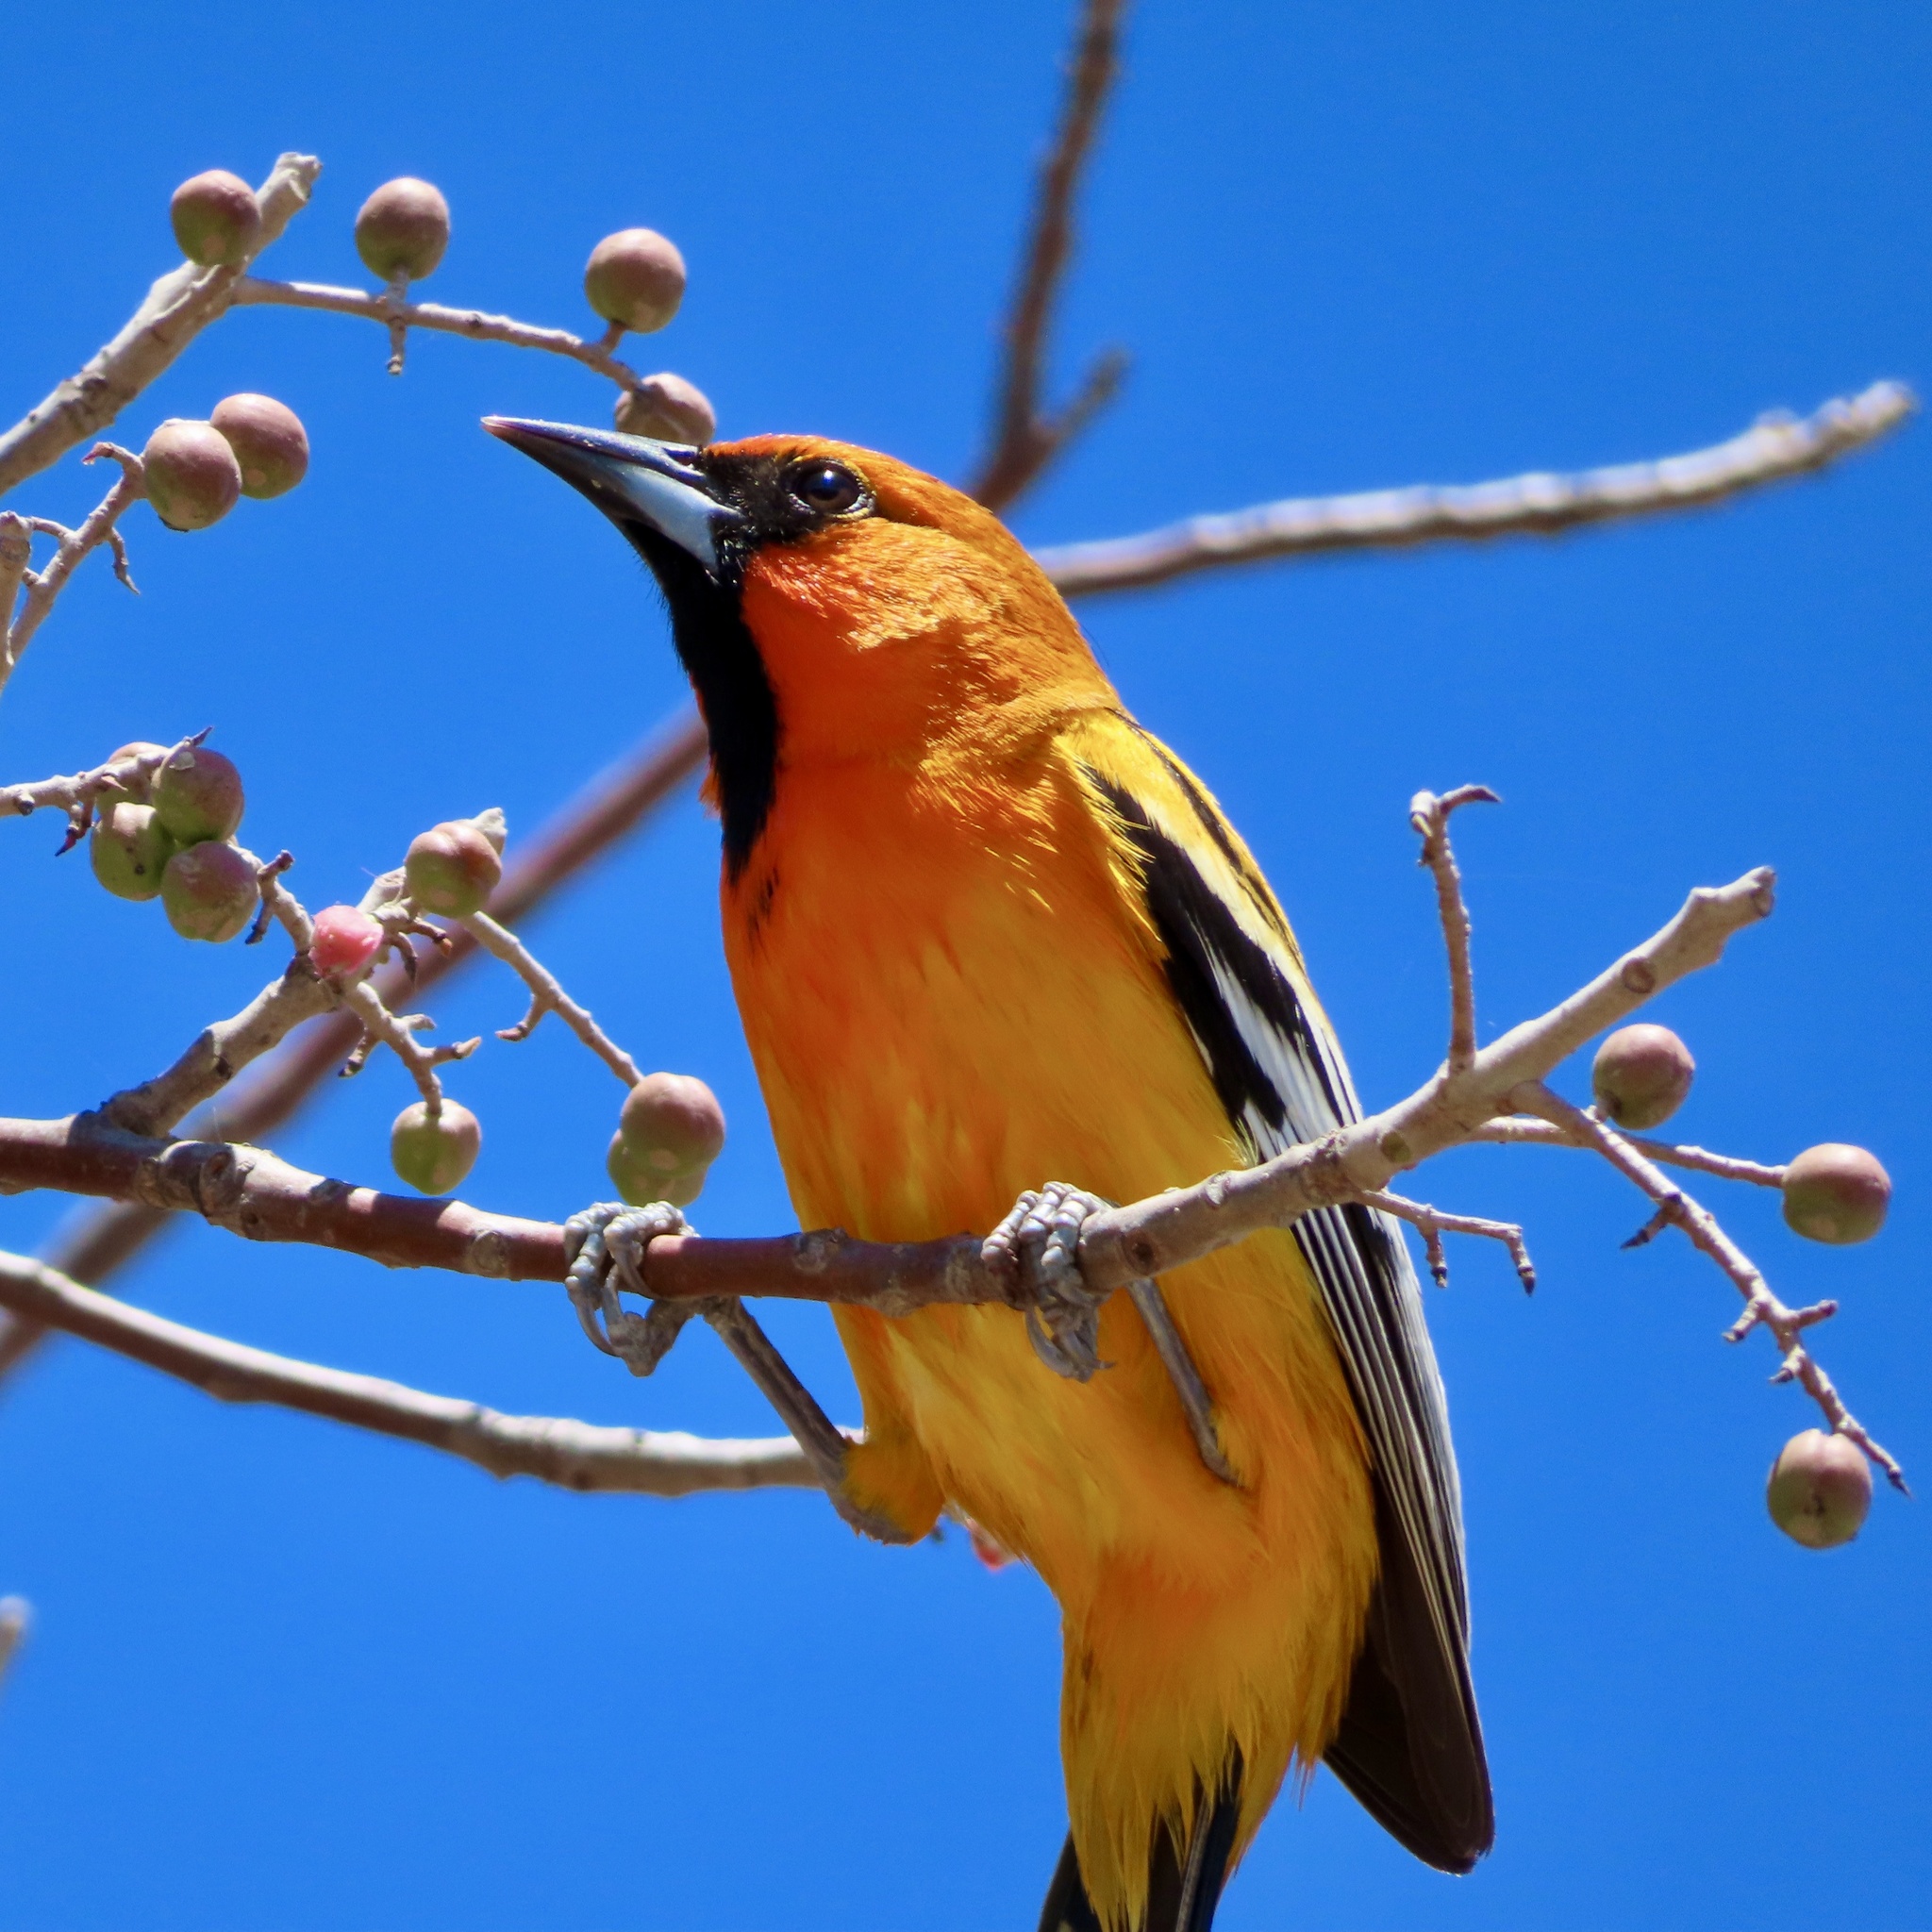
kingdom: Animalia
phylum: Chordata
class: Aves
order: Passeriformes
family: Icteridae
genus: Icterus
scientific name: Icterus pustulatus
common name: Streak-backed oriole
